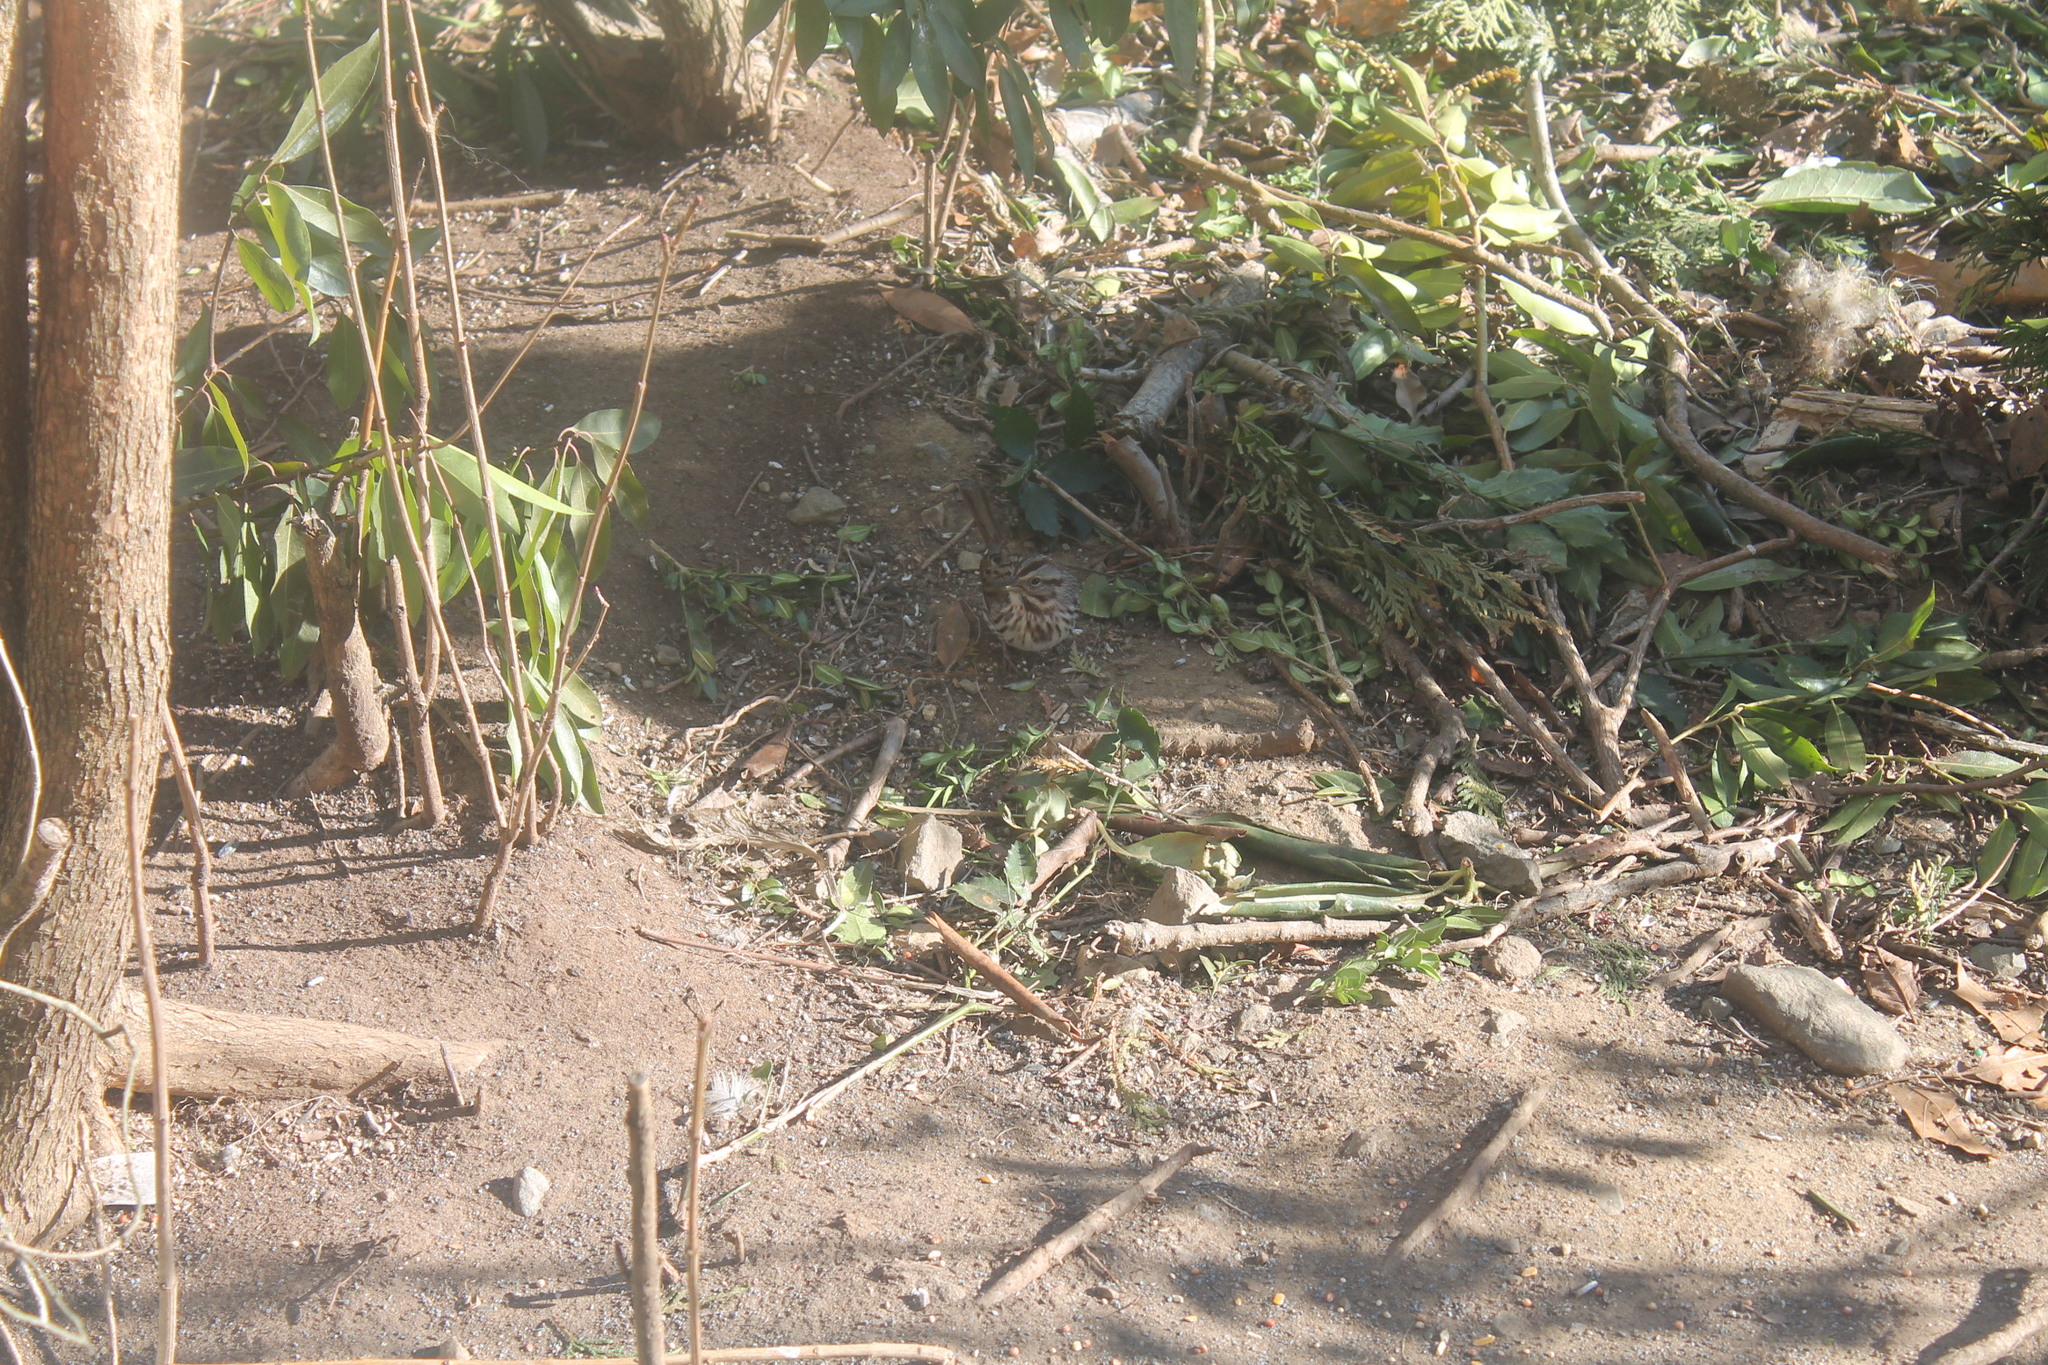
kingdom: Animalia
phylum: Chordata
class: Aves
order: Passeriformes
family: Passerellidae
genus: Melospiza
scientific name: Melospiza melodia
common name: Song sparrow
